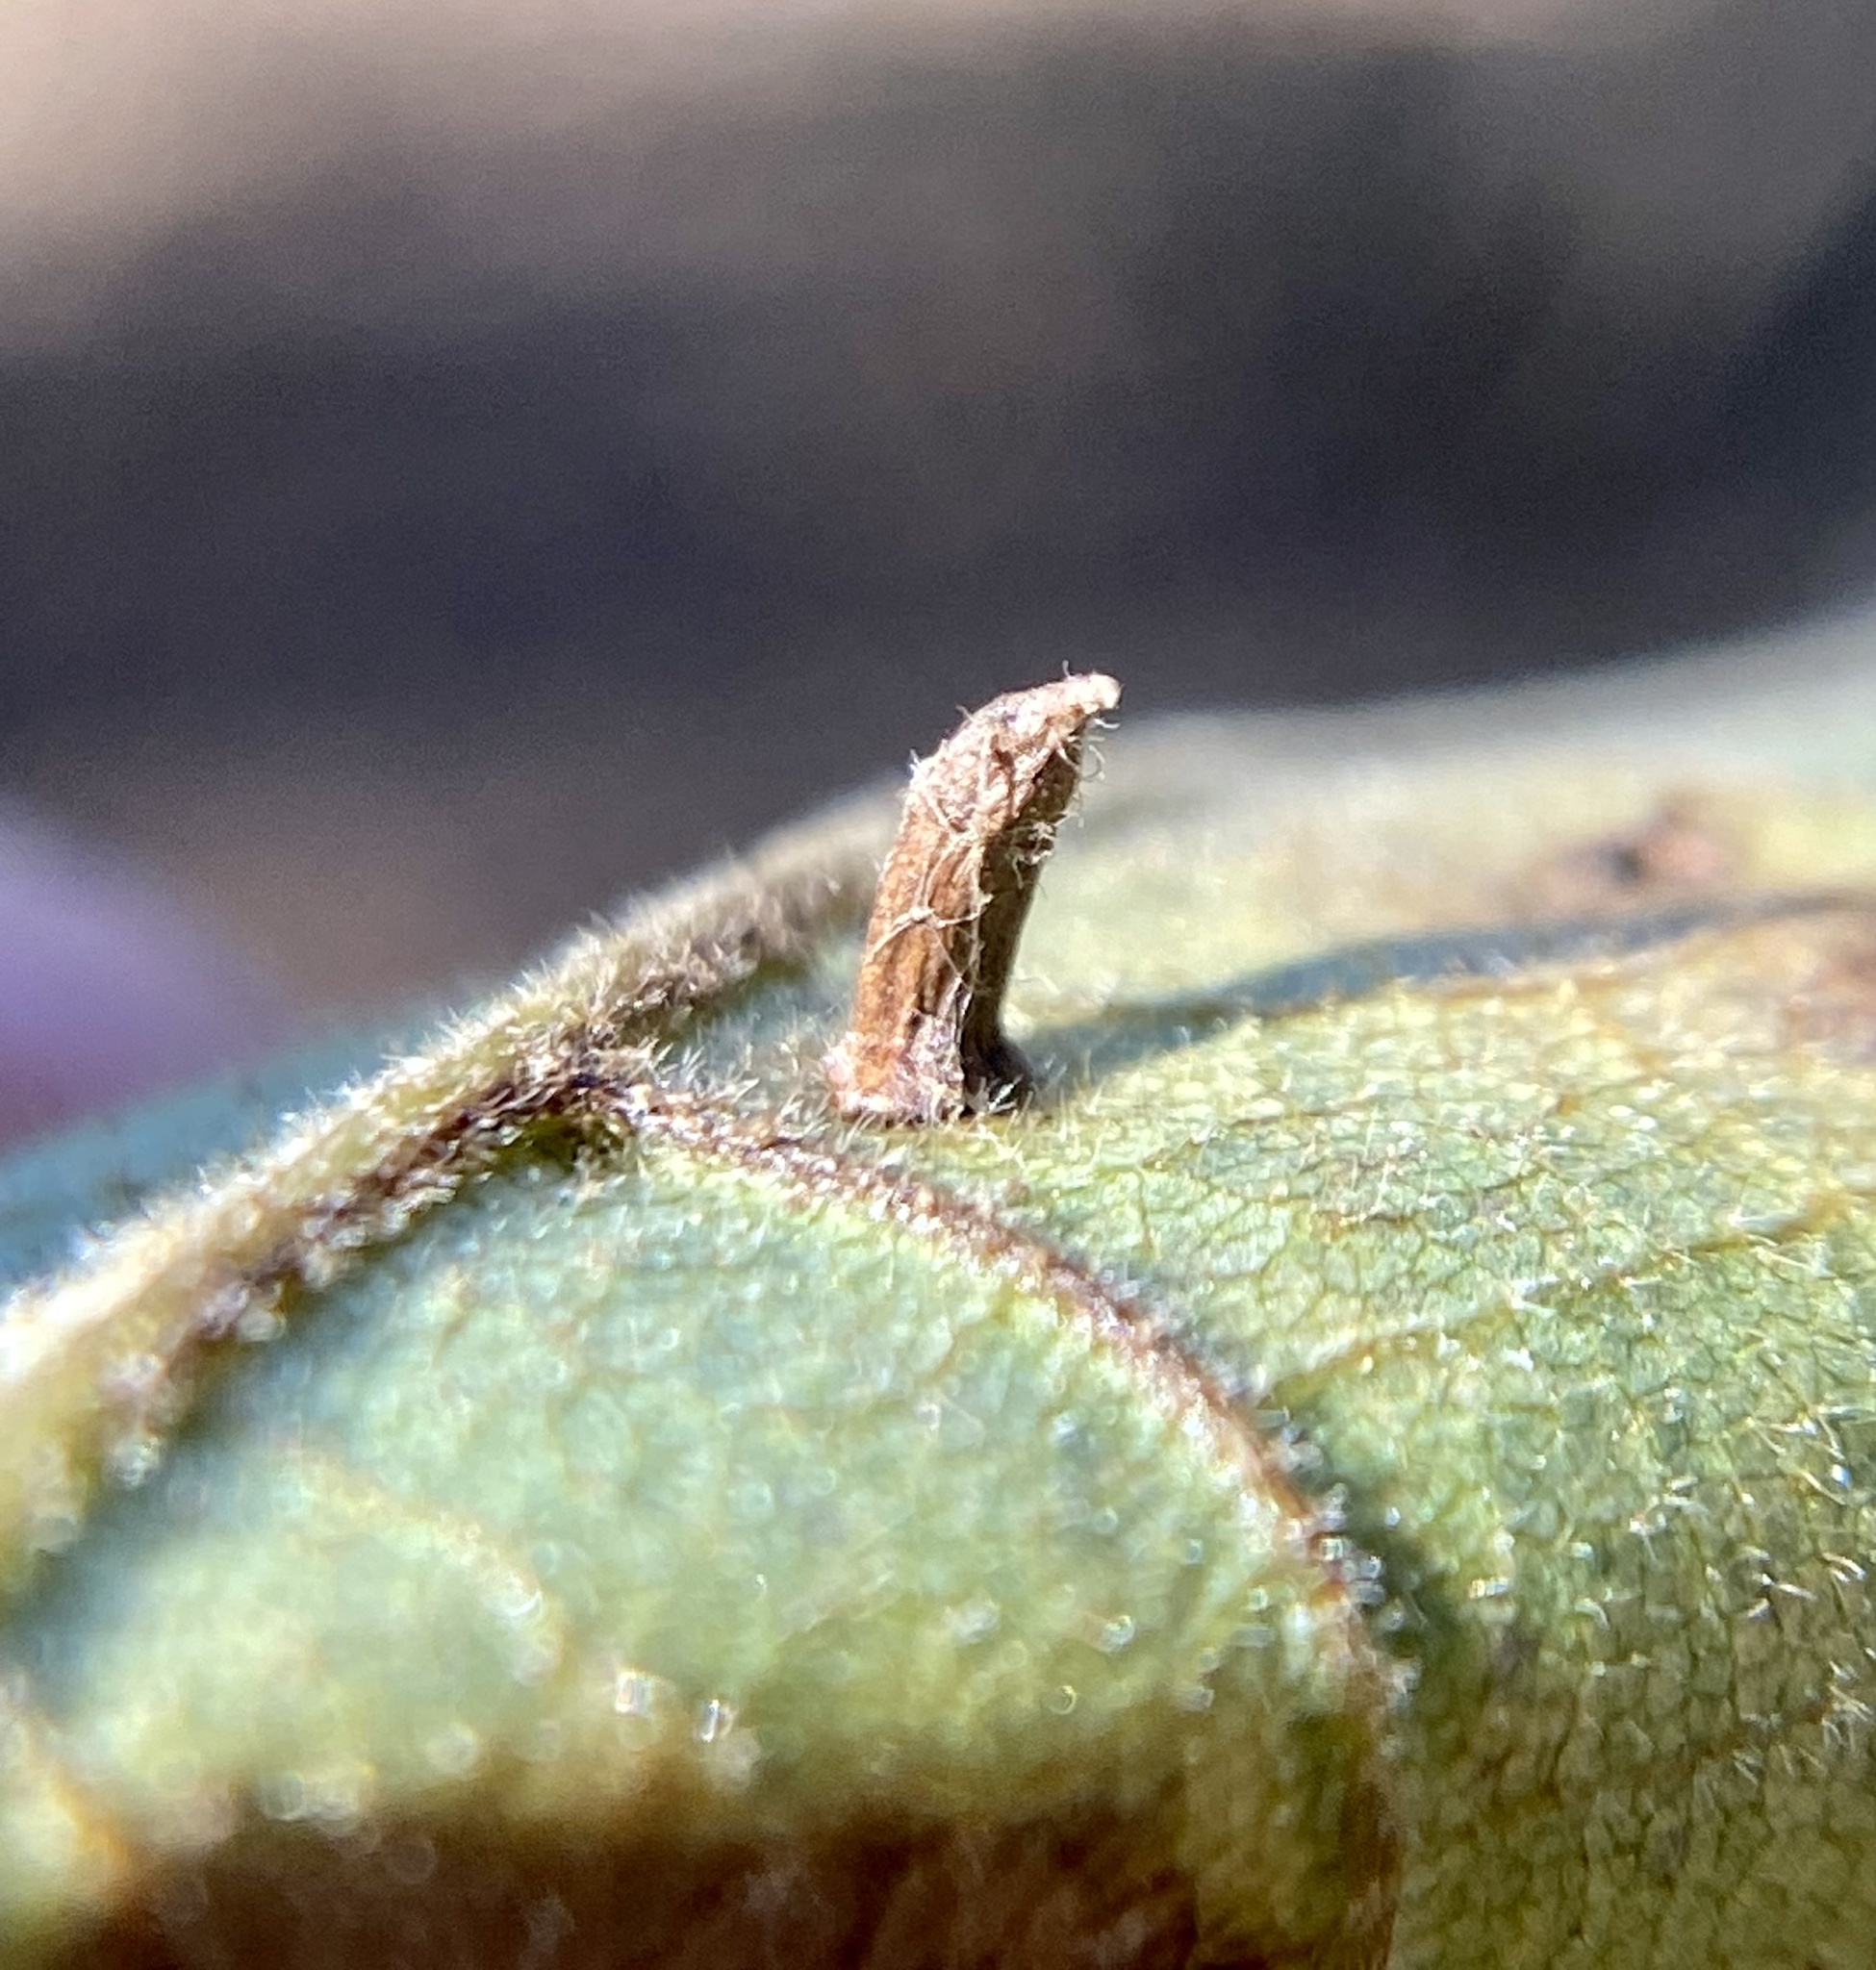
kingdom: Animalia
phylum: Arthropoda
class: Insecta
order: Diptera
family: Cecidomyiidae
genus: Caryomyia
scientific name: Caryomyia striolata
